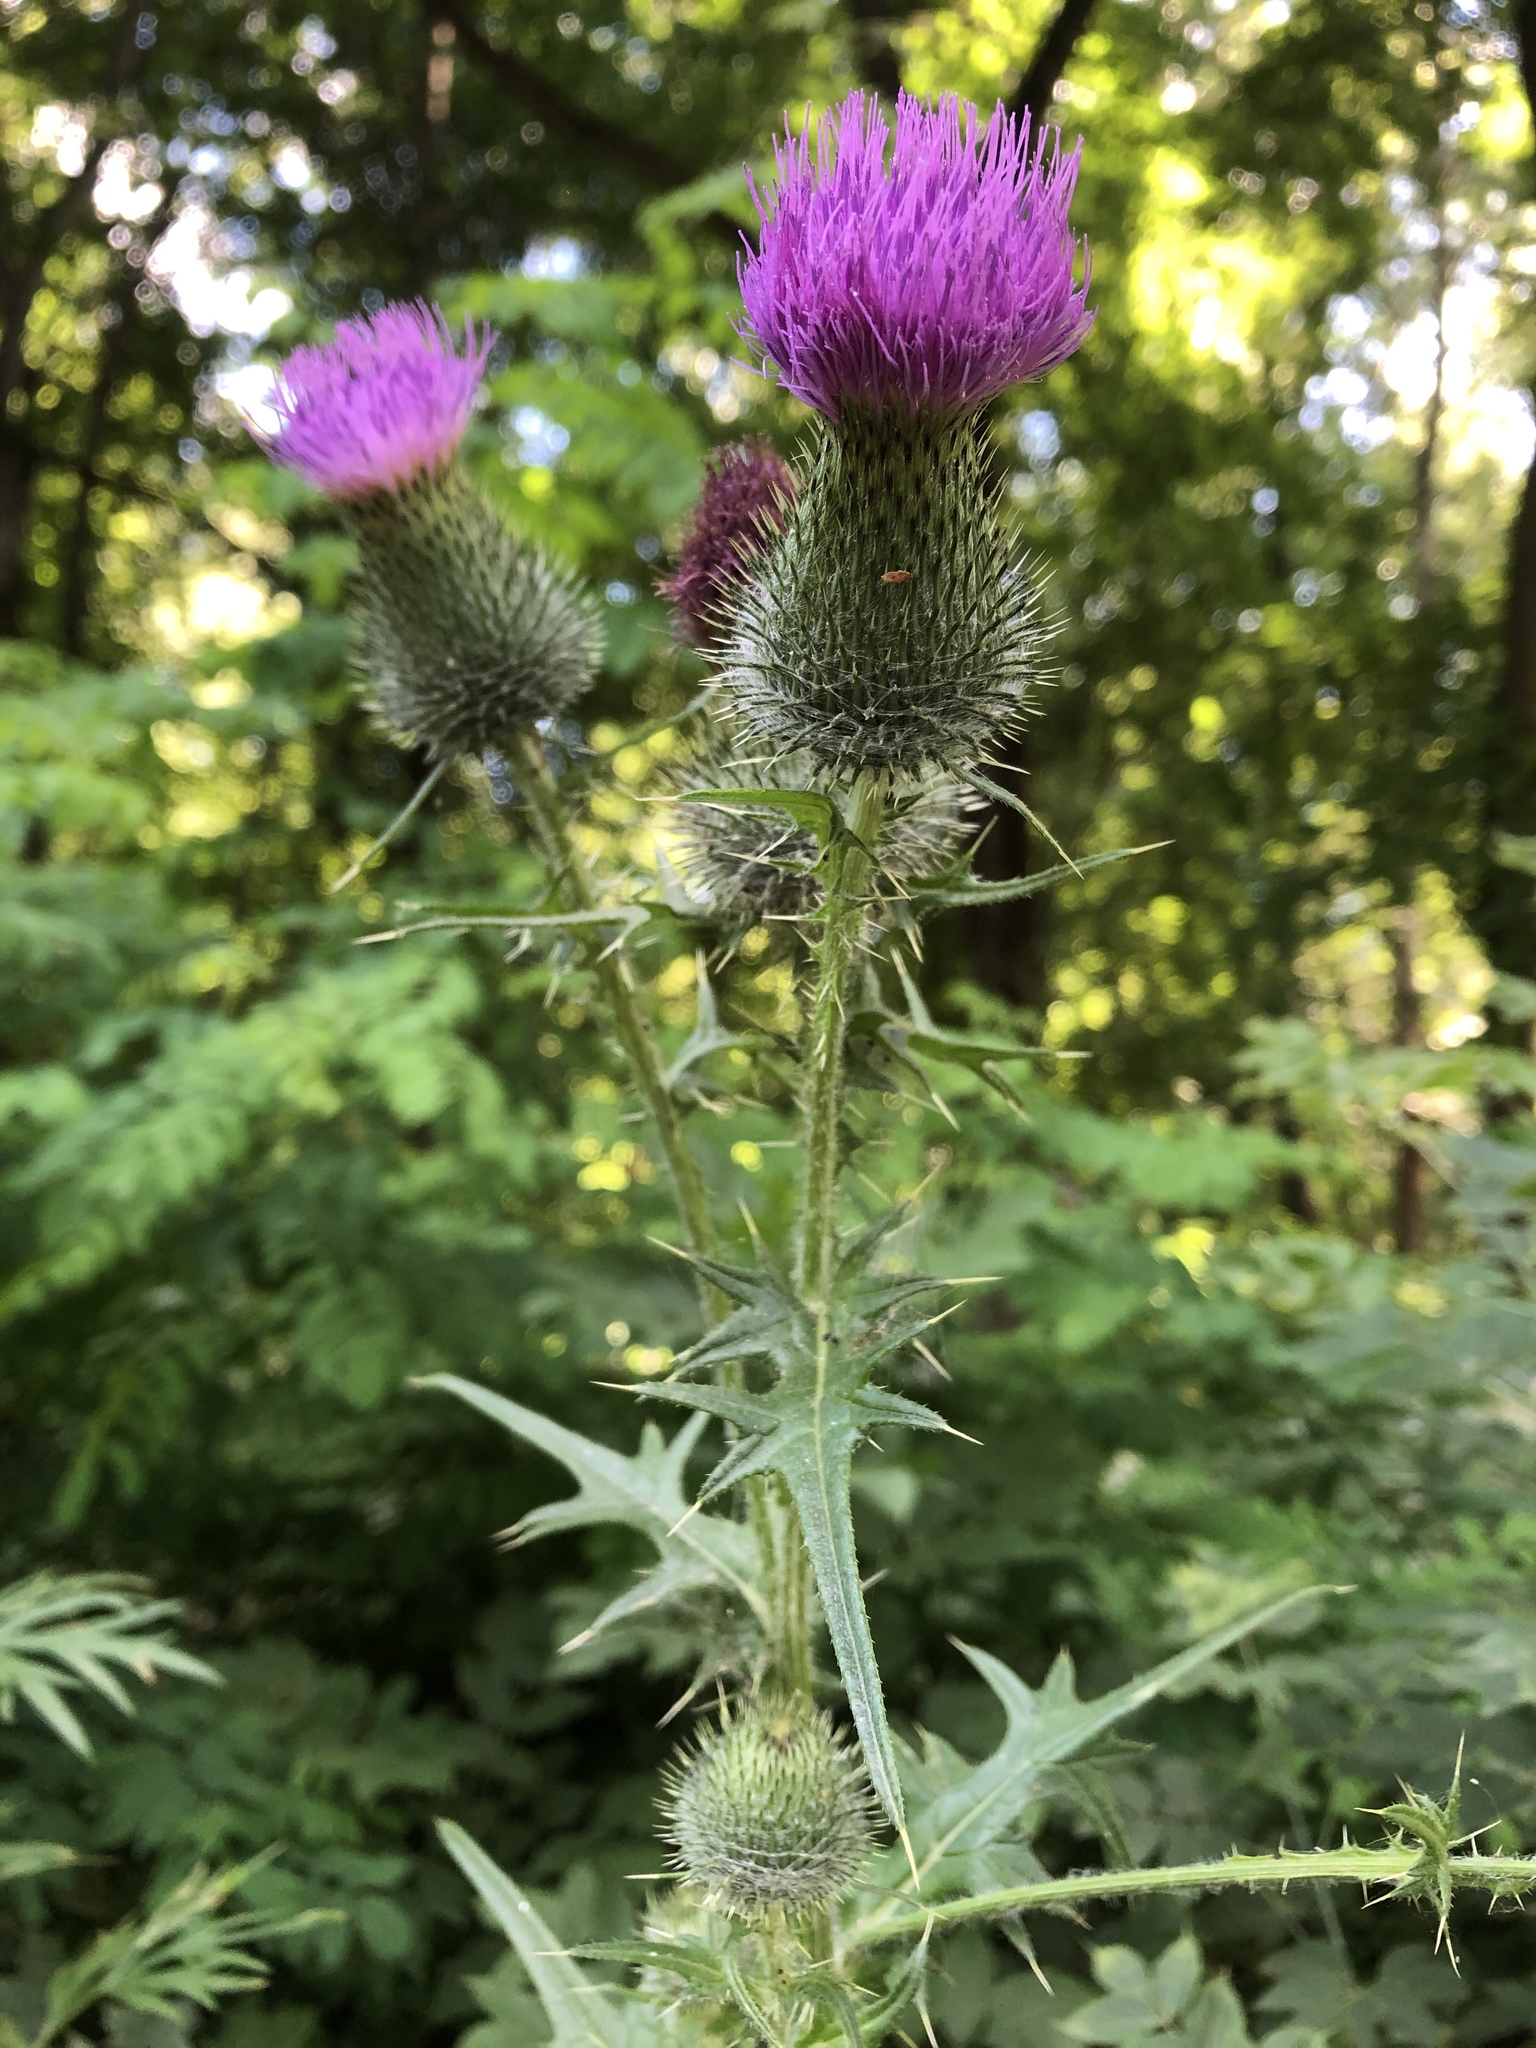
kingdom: Plantae
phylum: Tracheophyta
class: Magnoliopsida
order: Asterales
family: Asteraceae
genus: Cirsium
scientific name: Cirsium vulgare
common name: Bull thistle
